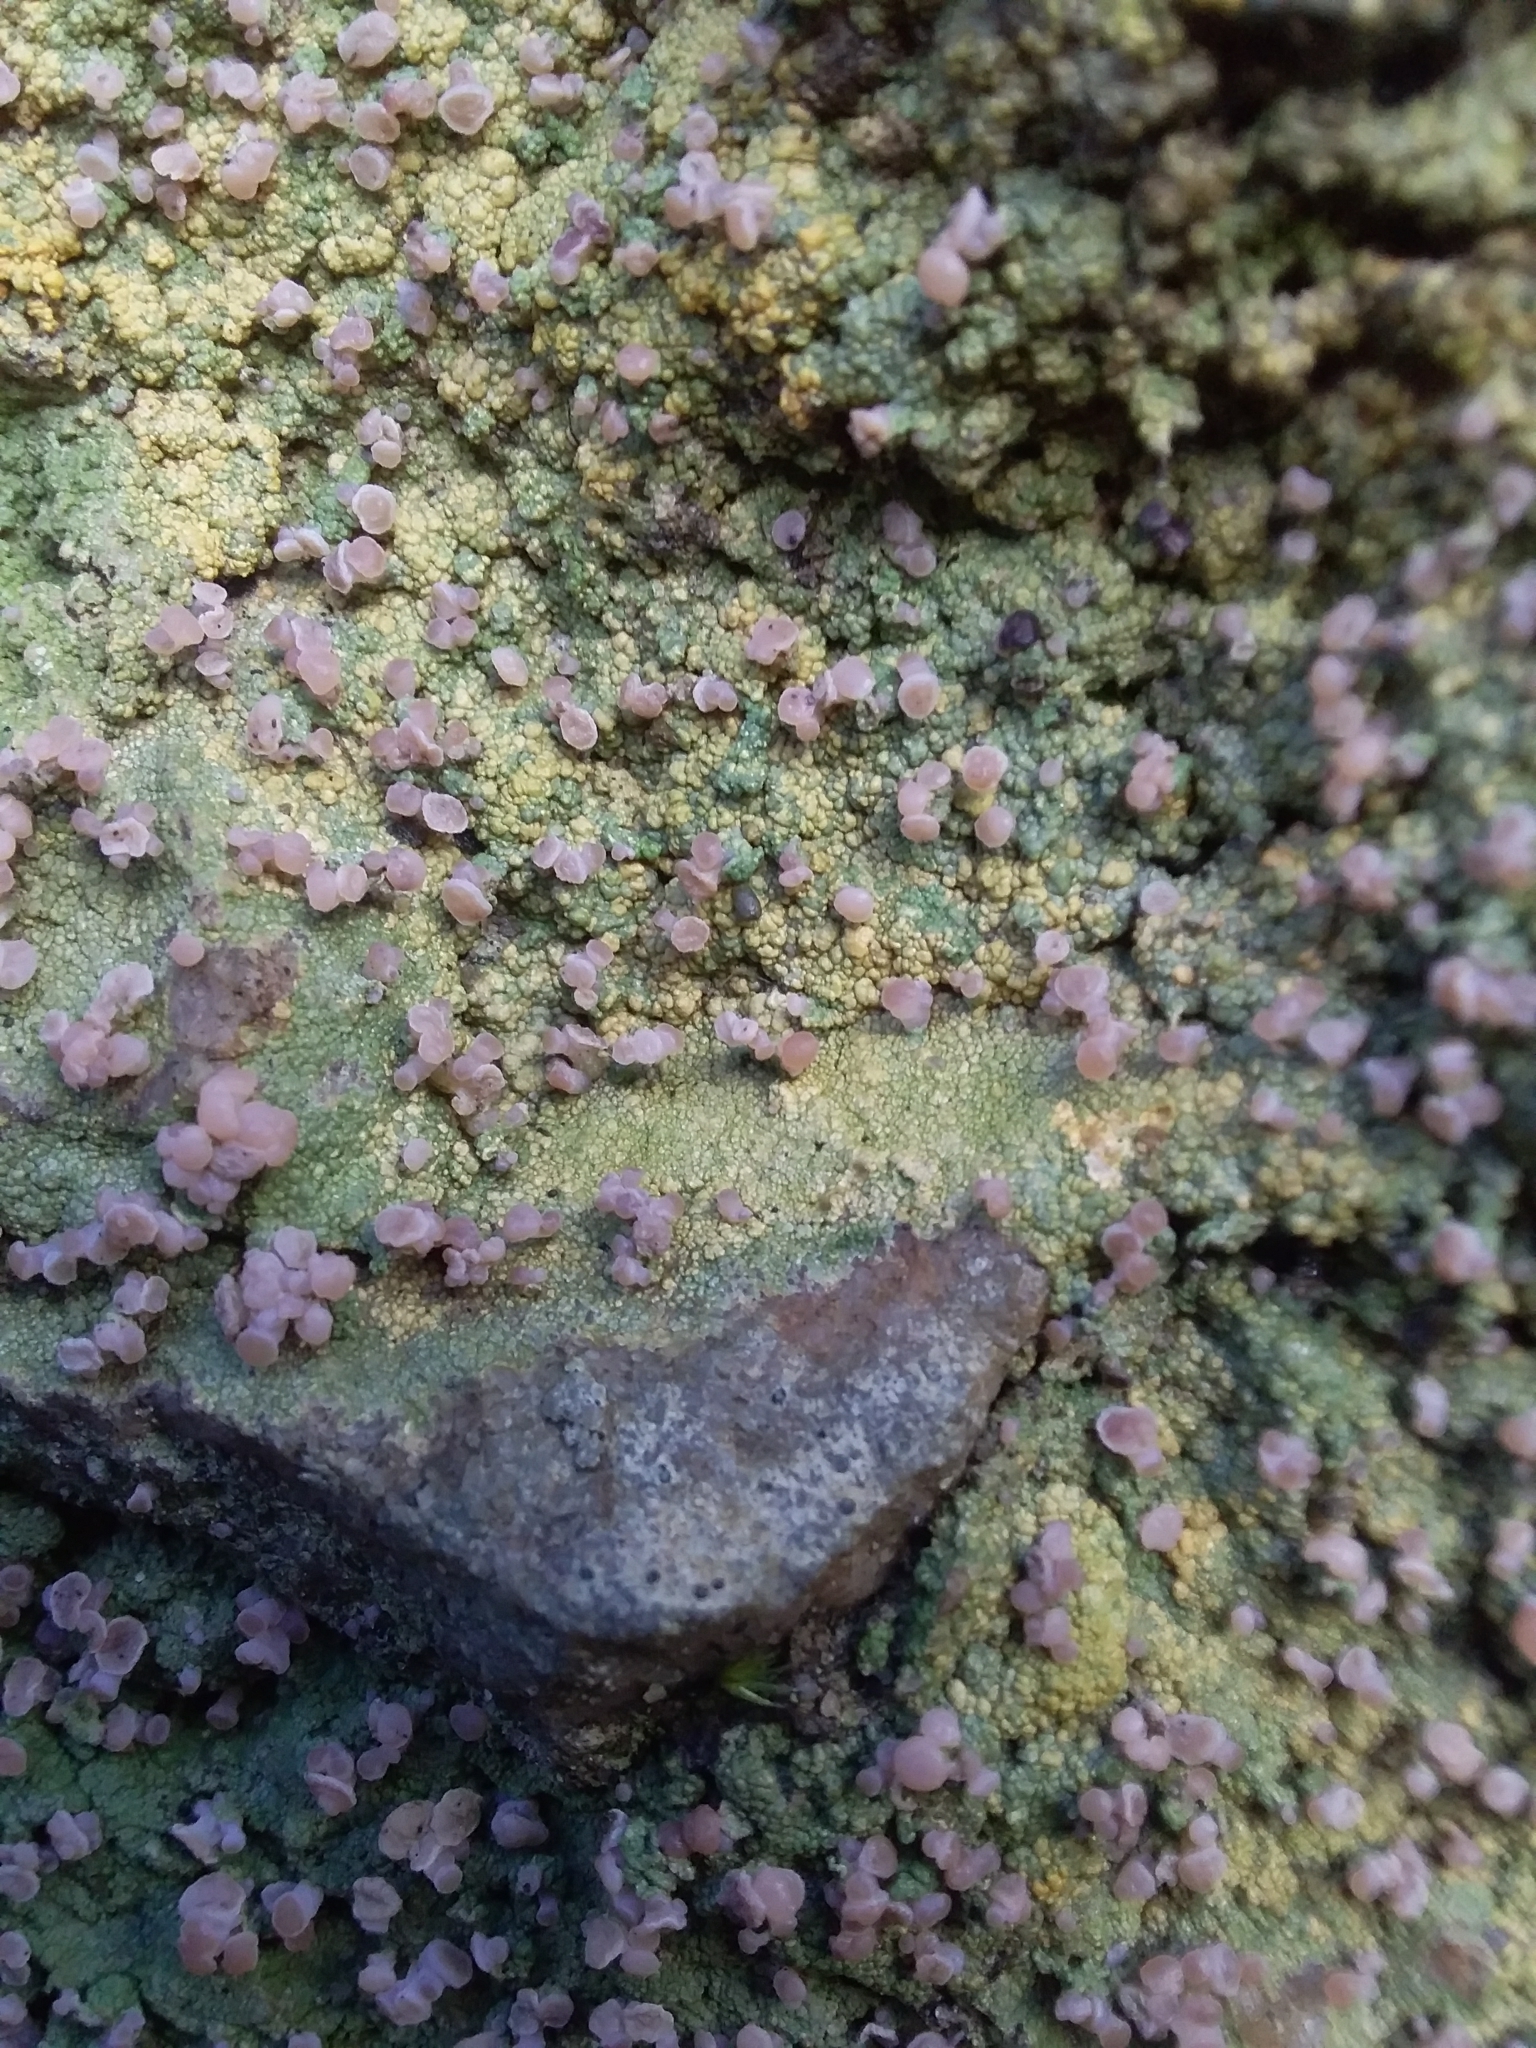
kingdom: Fungi
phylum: Ascomycota
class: Lecanoromycetes
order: Baeomycetales
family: Baeomycetaceae
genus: Baeomyces
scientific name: Baeomyces heteromorphus
